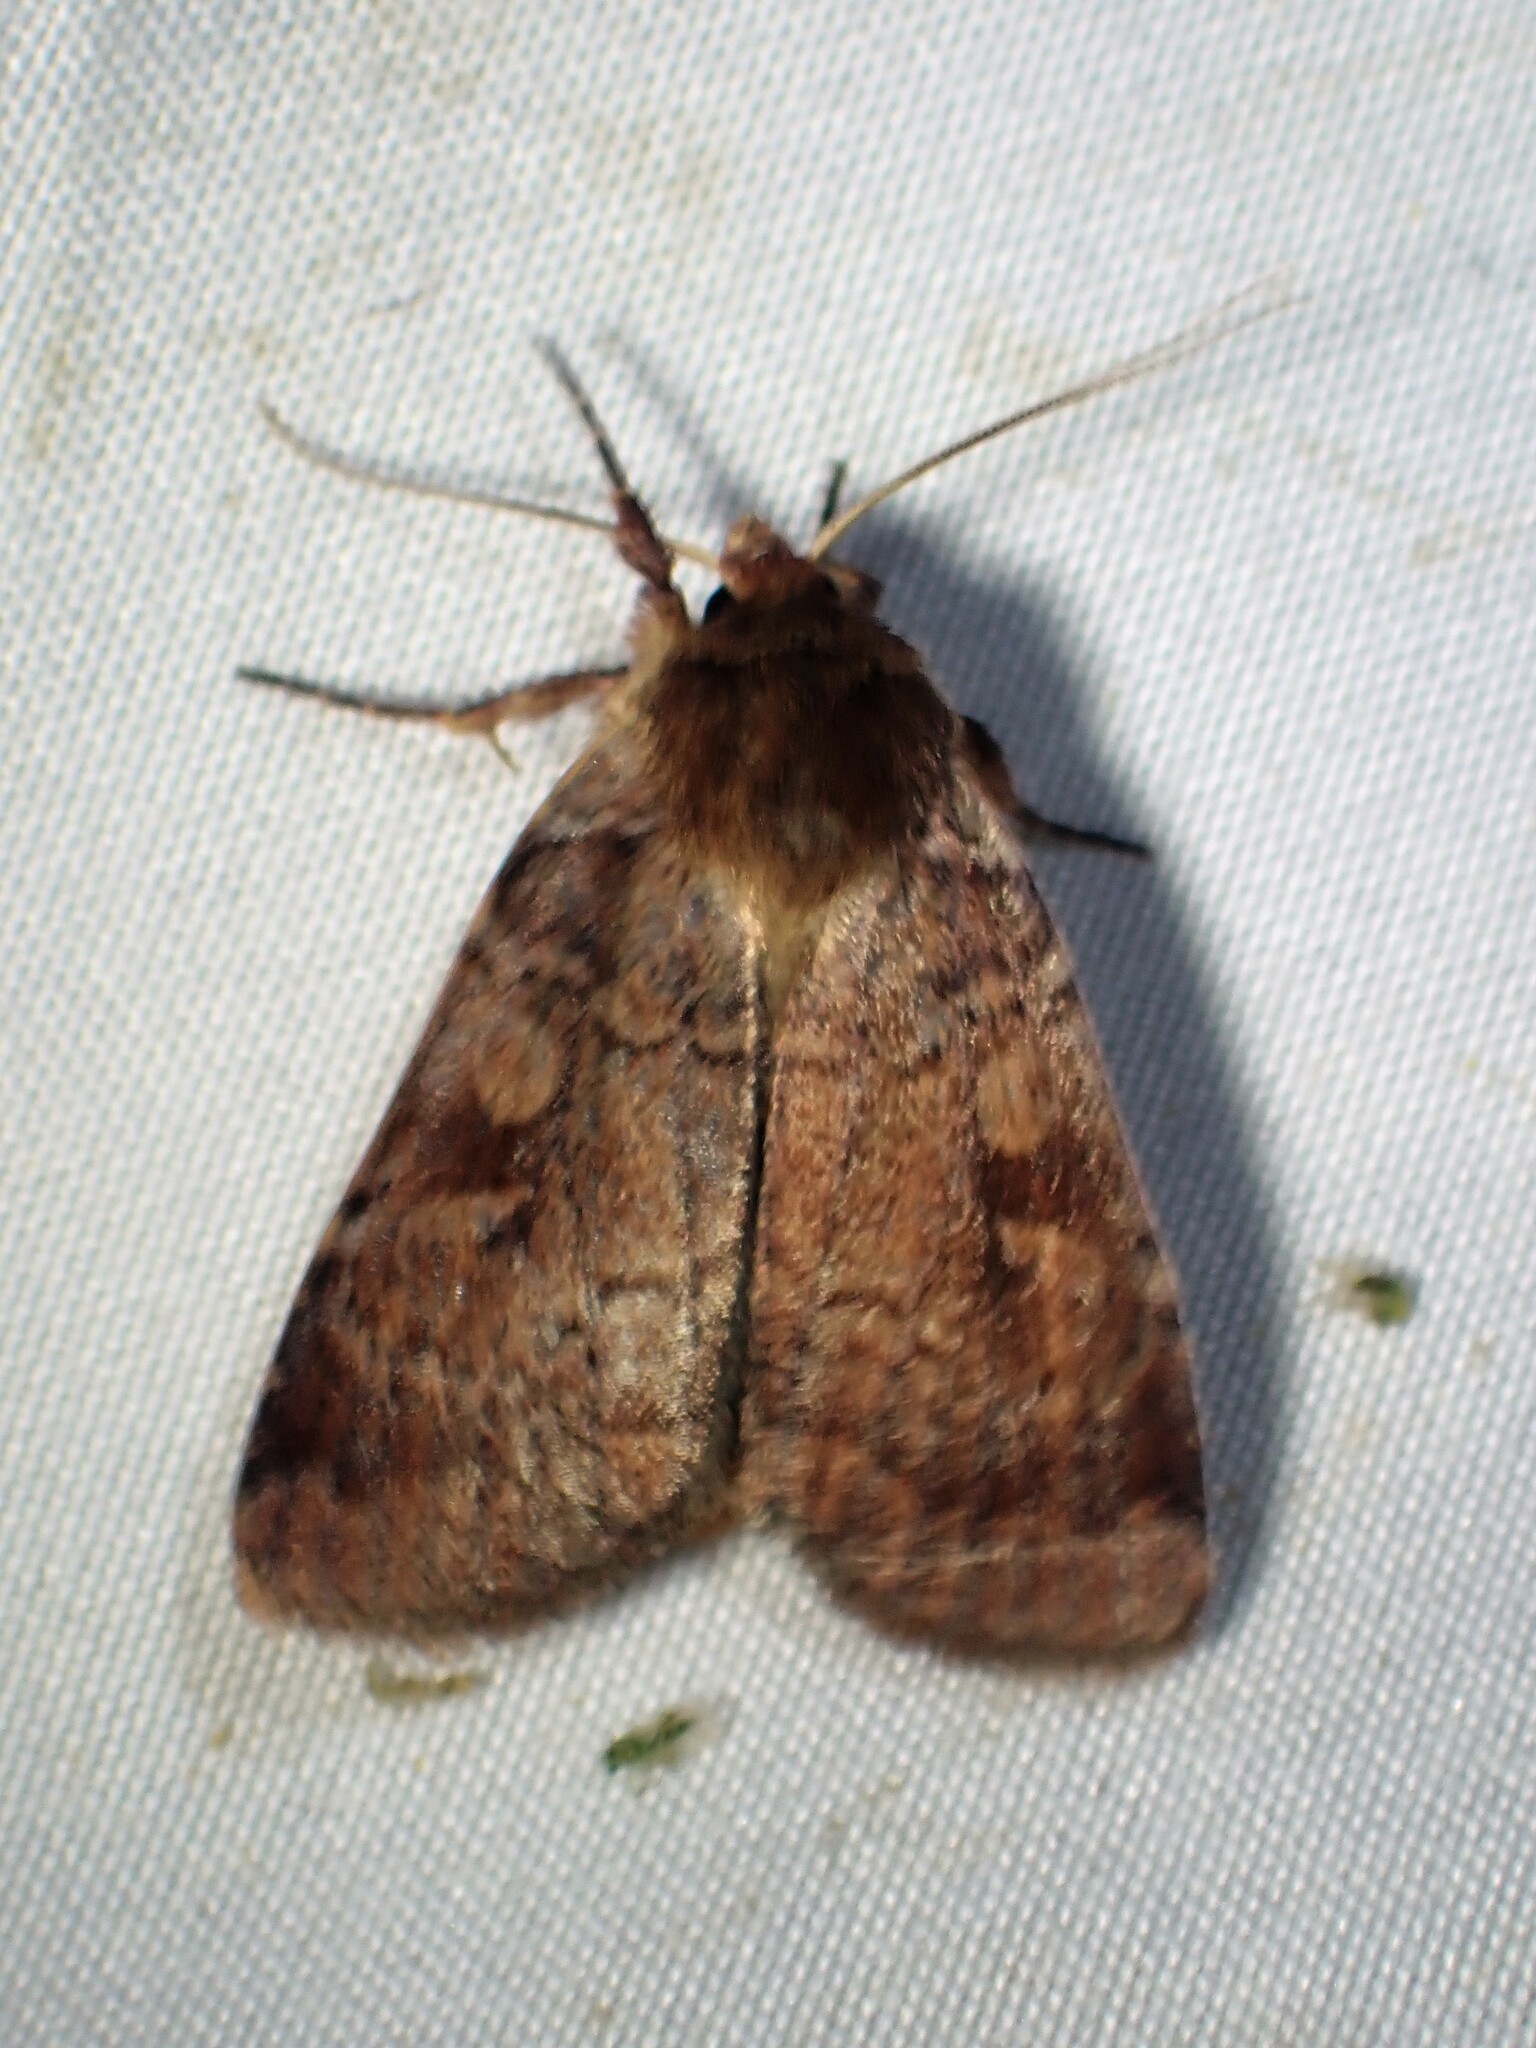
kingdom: Animalia
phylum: Arthropoda
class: Insecta
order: Lepidoptera
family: Noctuidae
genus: Lycophotia
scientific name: Lycophotia phyllophora
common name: Lycophotia moth
